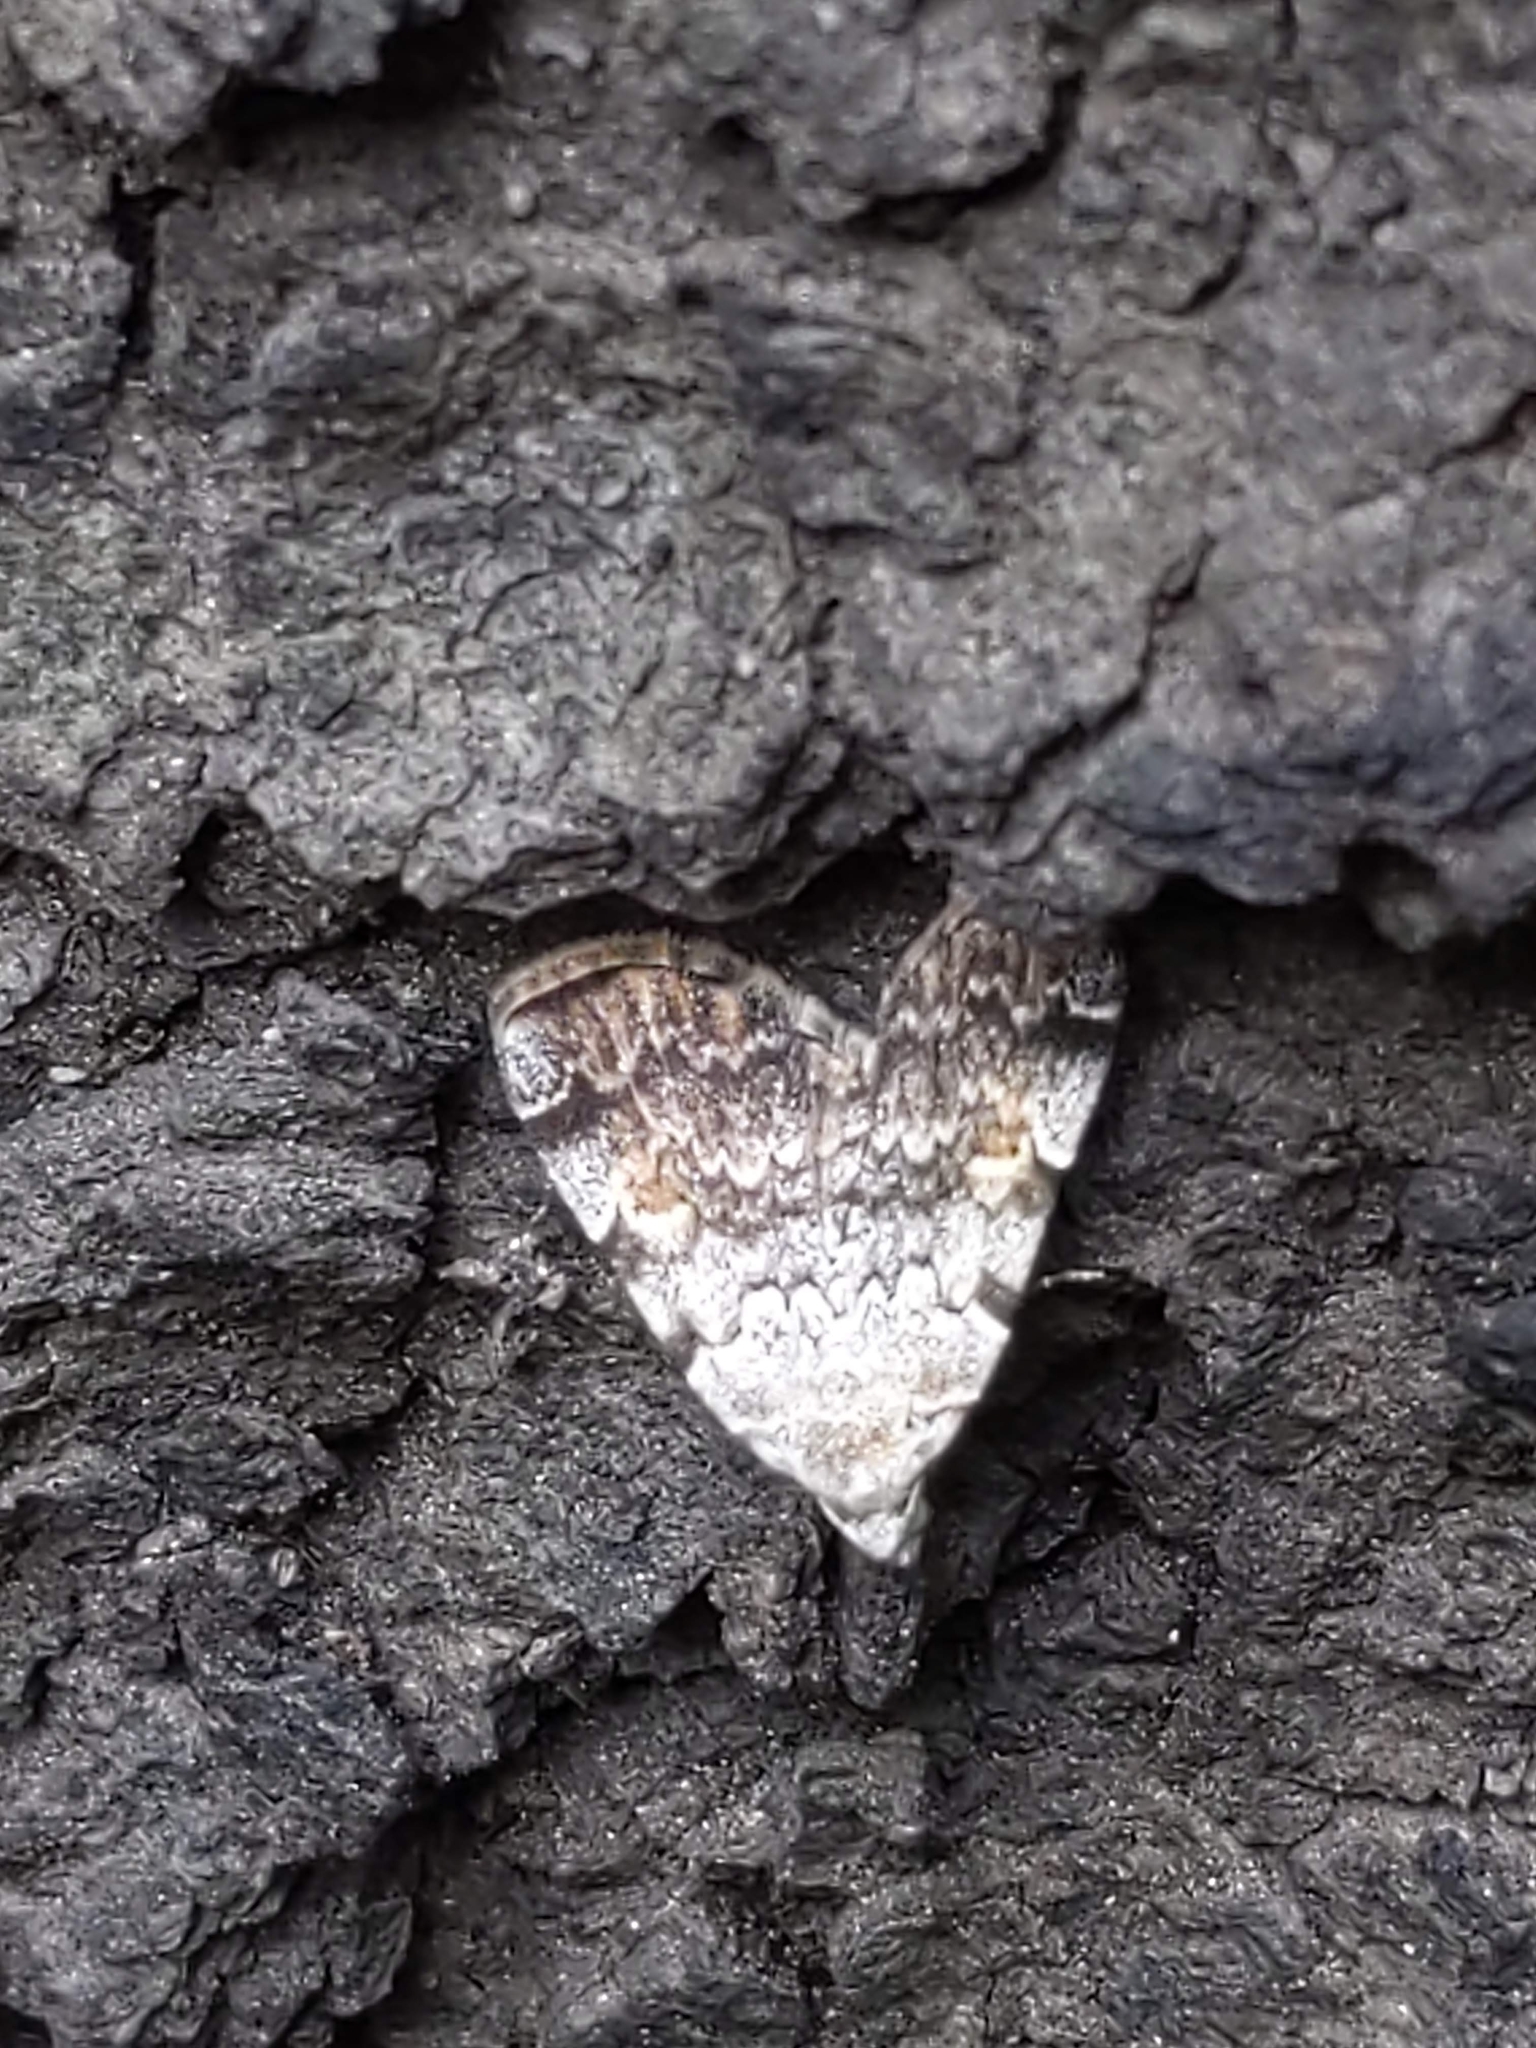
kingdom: Animalia
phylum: Arthropoda
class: Insecta
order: Lepidoptera
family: Erebidae
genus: Idia
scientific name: Idia americalis
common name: American idia moth
